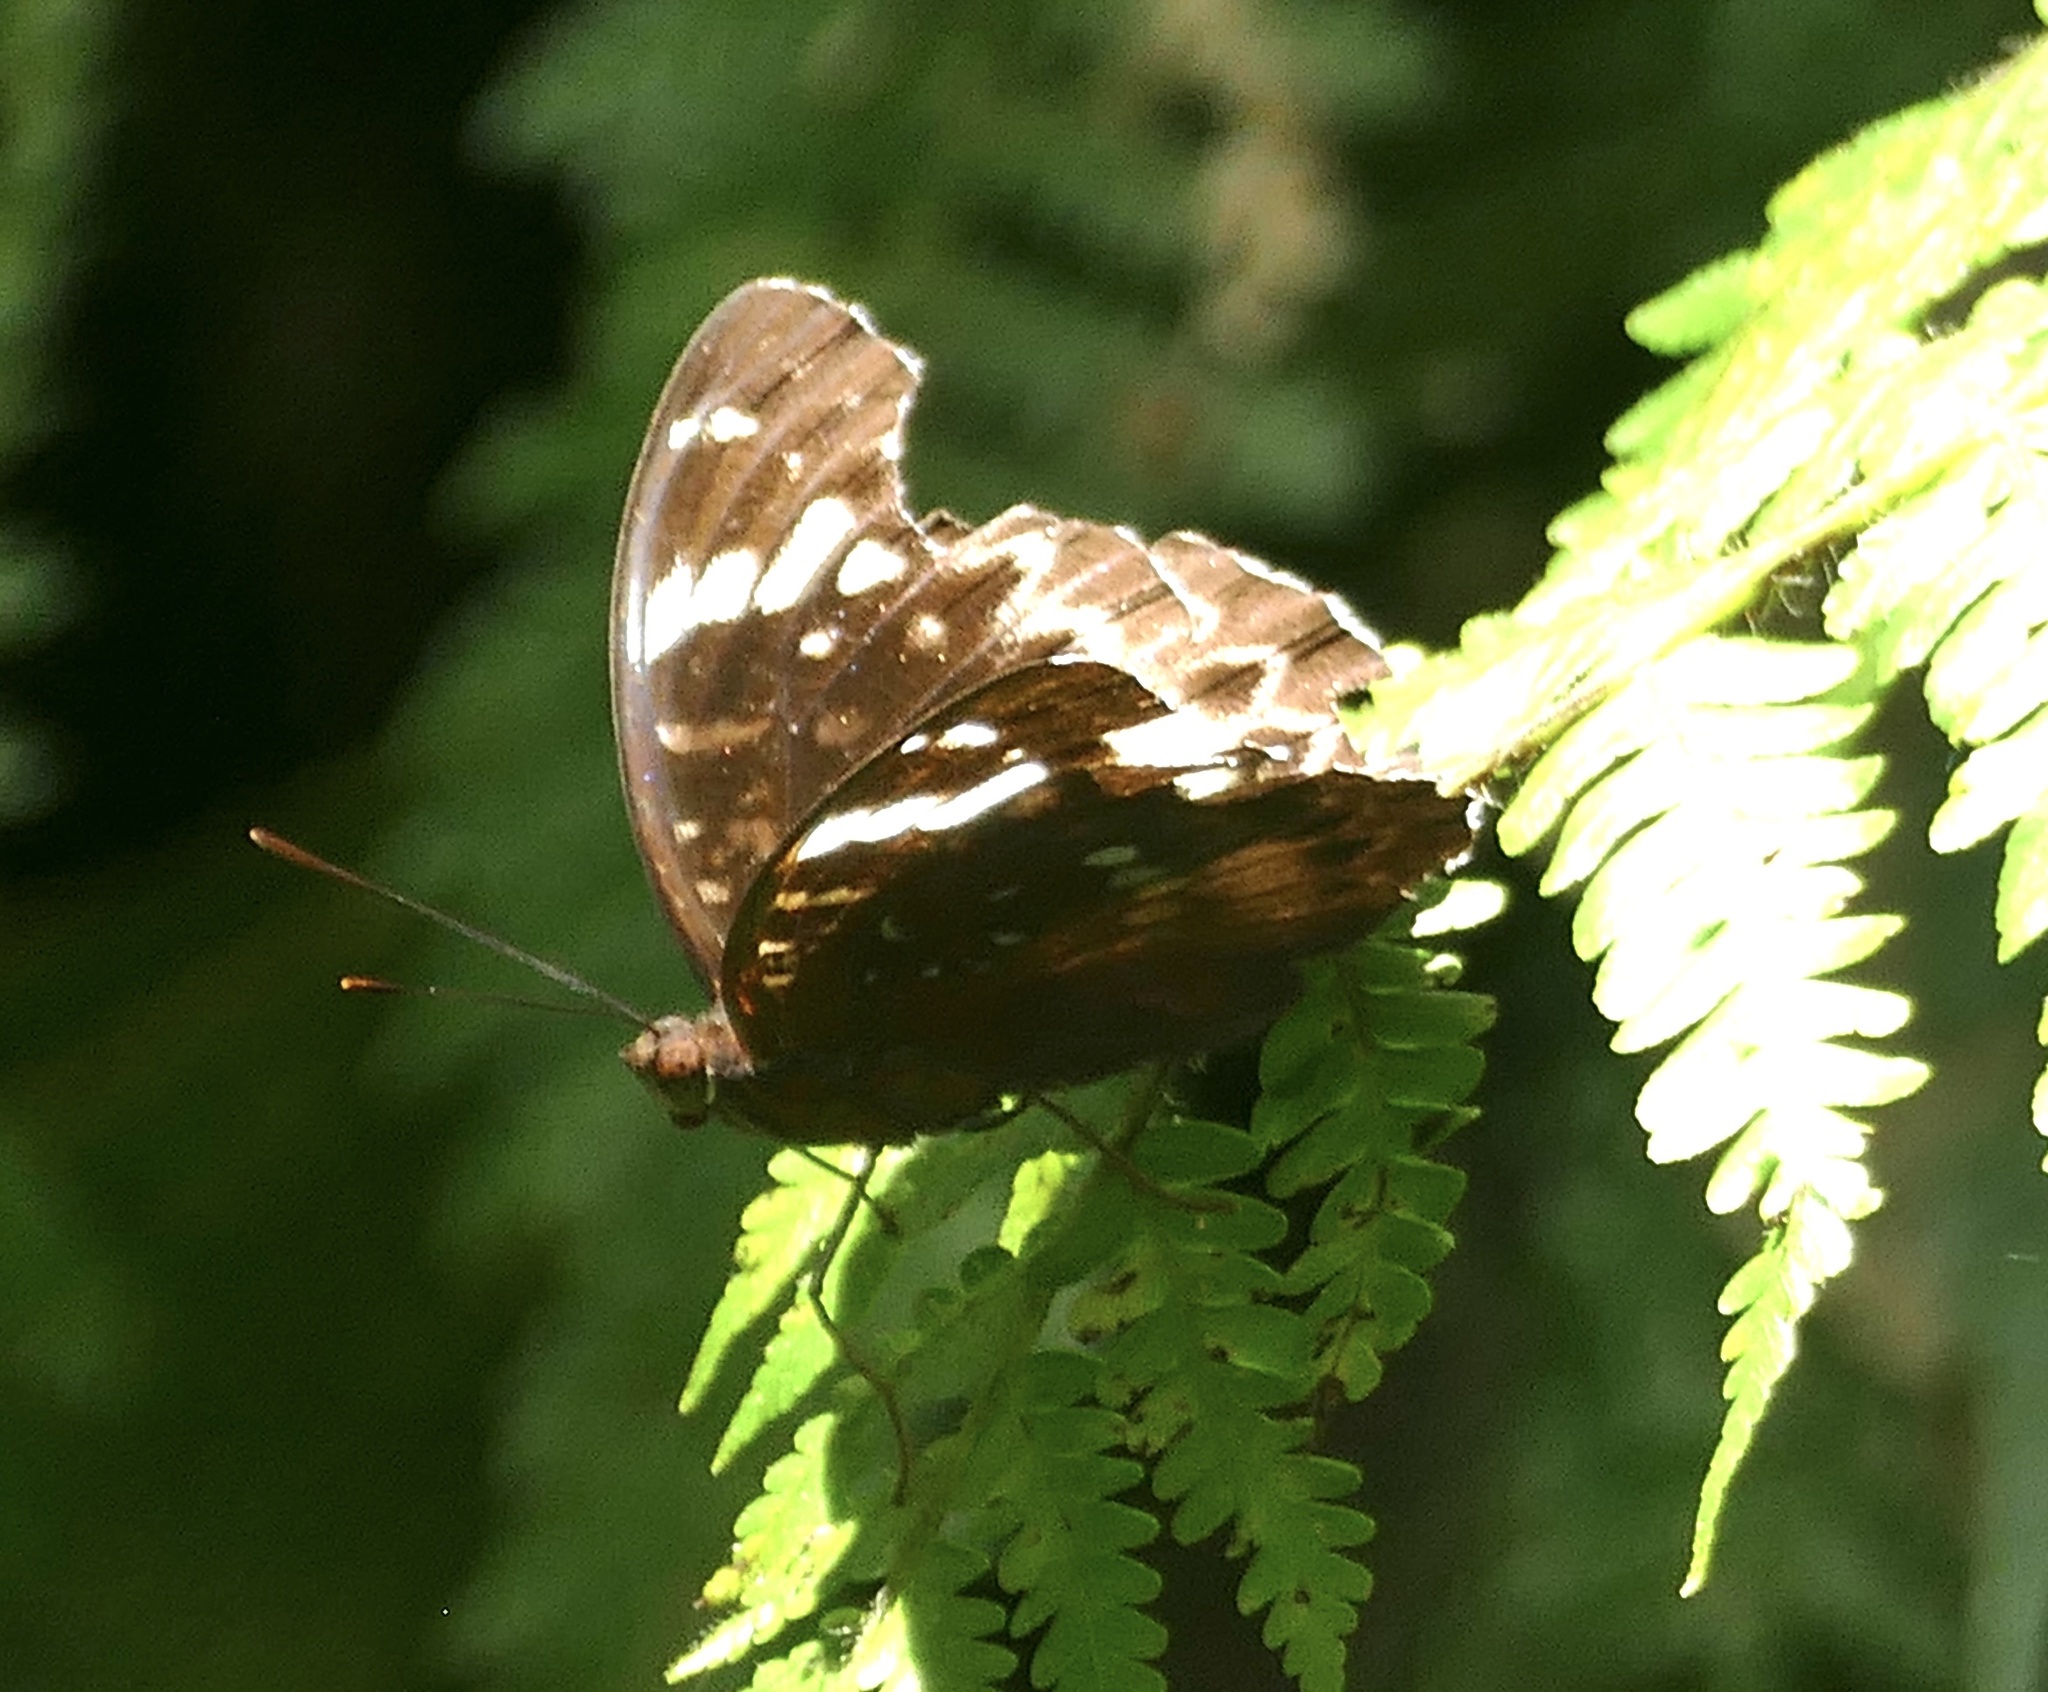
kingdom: Animalia
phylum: Arthropoda
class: Insecta
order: Lepidoptera
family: Nymphalidae
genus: Lexias
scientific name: Lexias aeetes
